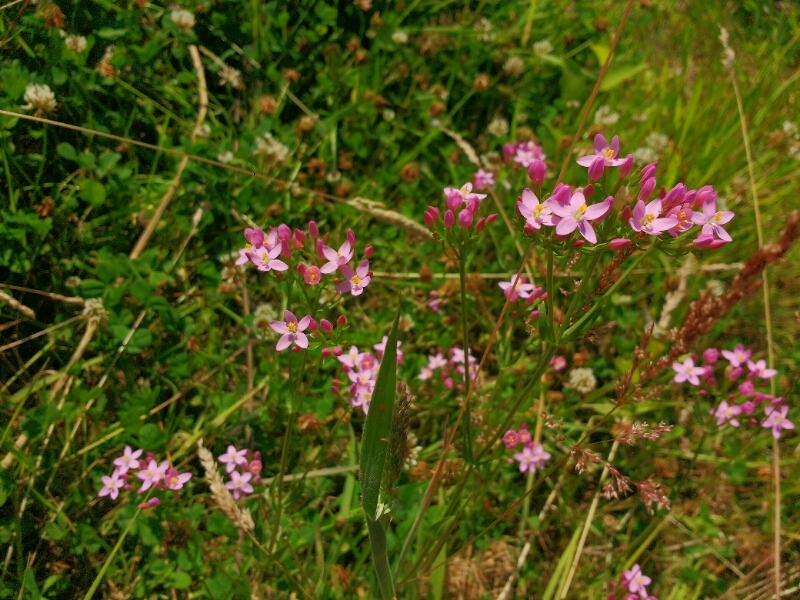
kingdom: Plantae
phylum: Tracheophyta
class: Magnoliopsida
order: Gentianales
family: Gentianaceae
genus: Centaurium
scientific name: Centaurium erythraea
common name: Common centaury
